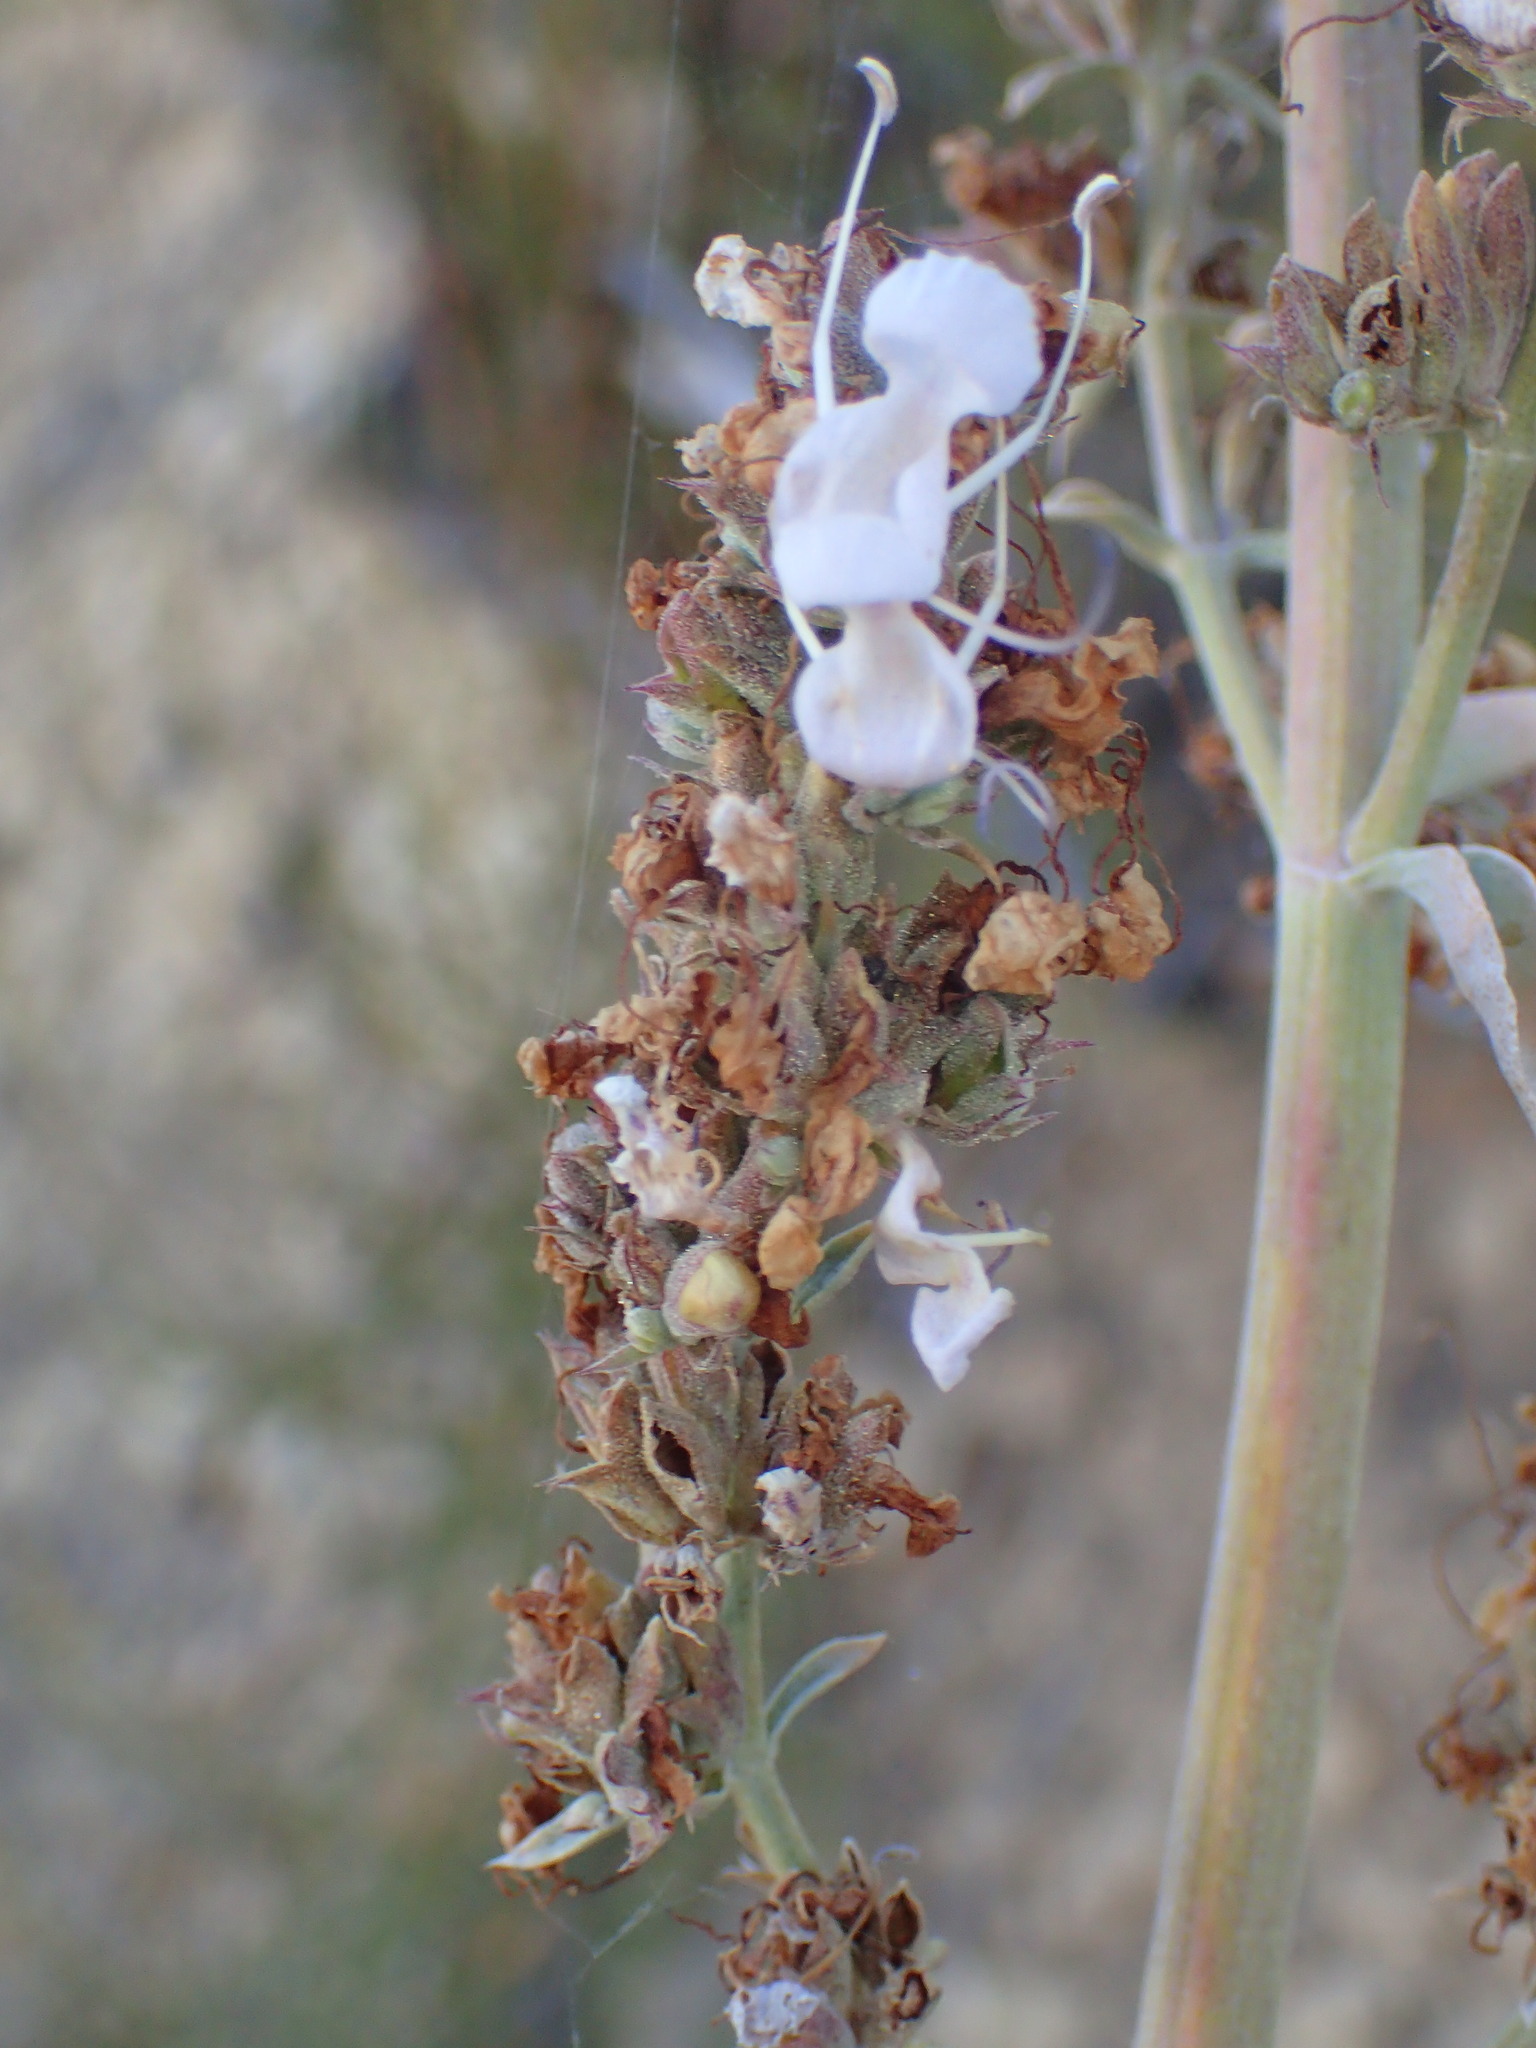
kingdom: Plantae
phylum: Tracheophyta
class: Magnoliopsida
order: Lamiales
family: Lamiaceae
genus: Salvia
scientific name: Salvia apiana
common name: White sage
